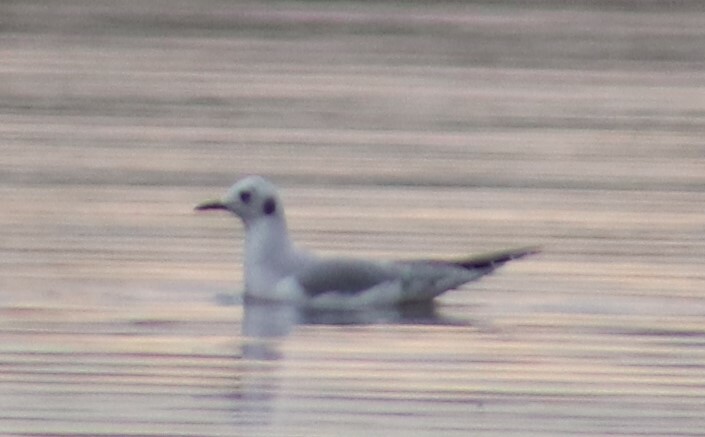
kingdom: Animalia
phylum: Chordata
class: Aves
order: Charadriiformes
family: Laridae
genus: Chroicocephalus
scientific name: Chroicocephalus philadelphia
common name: Bonaparte's gull
